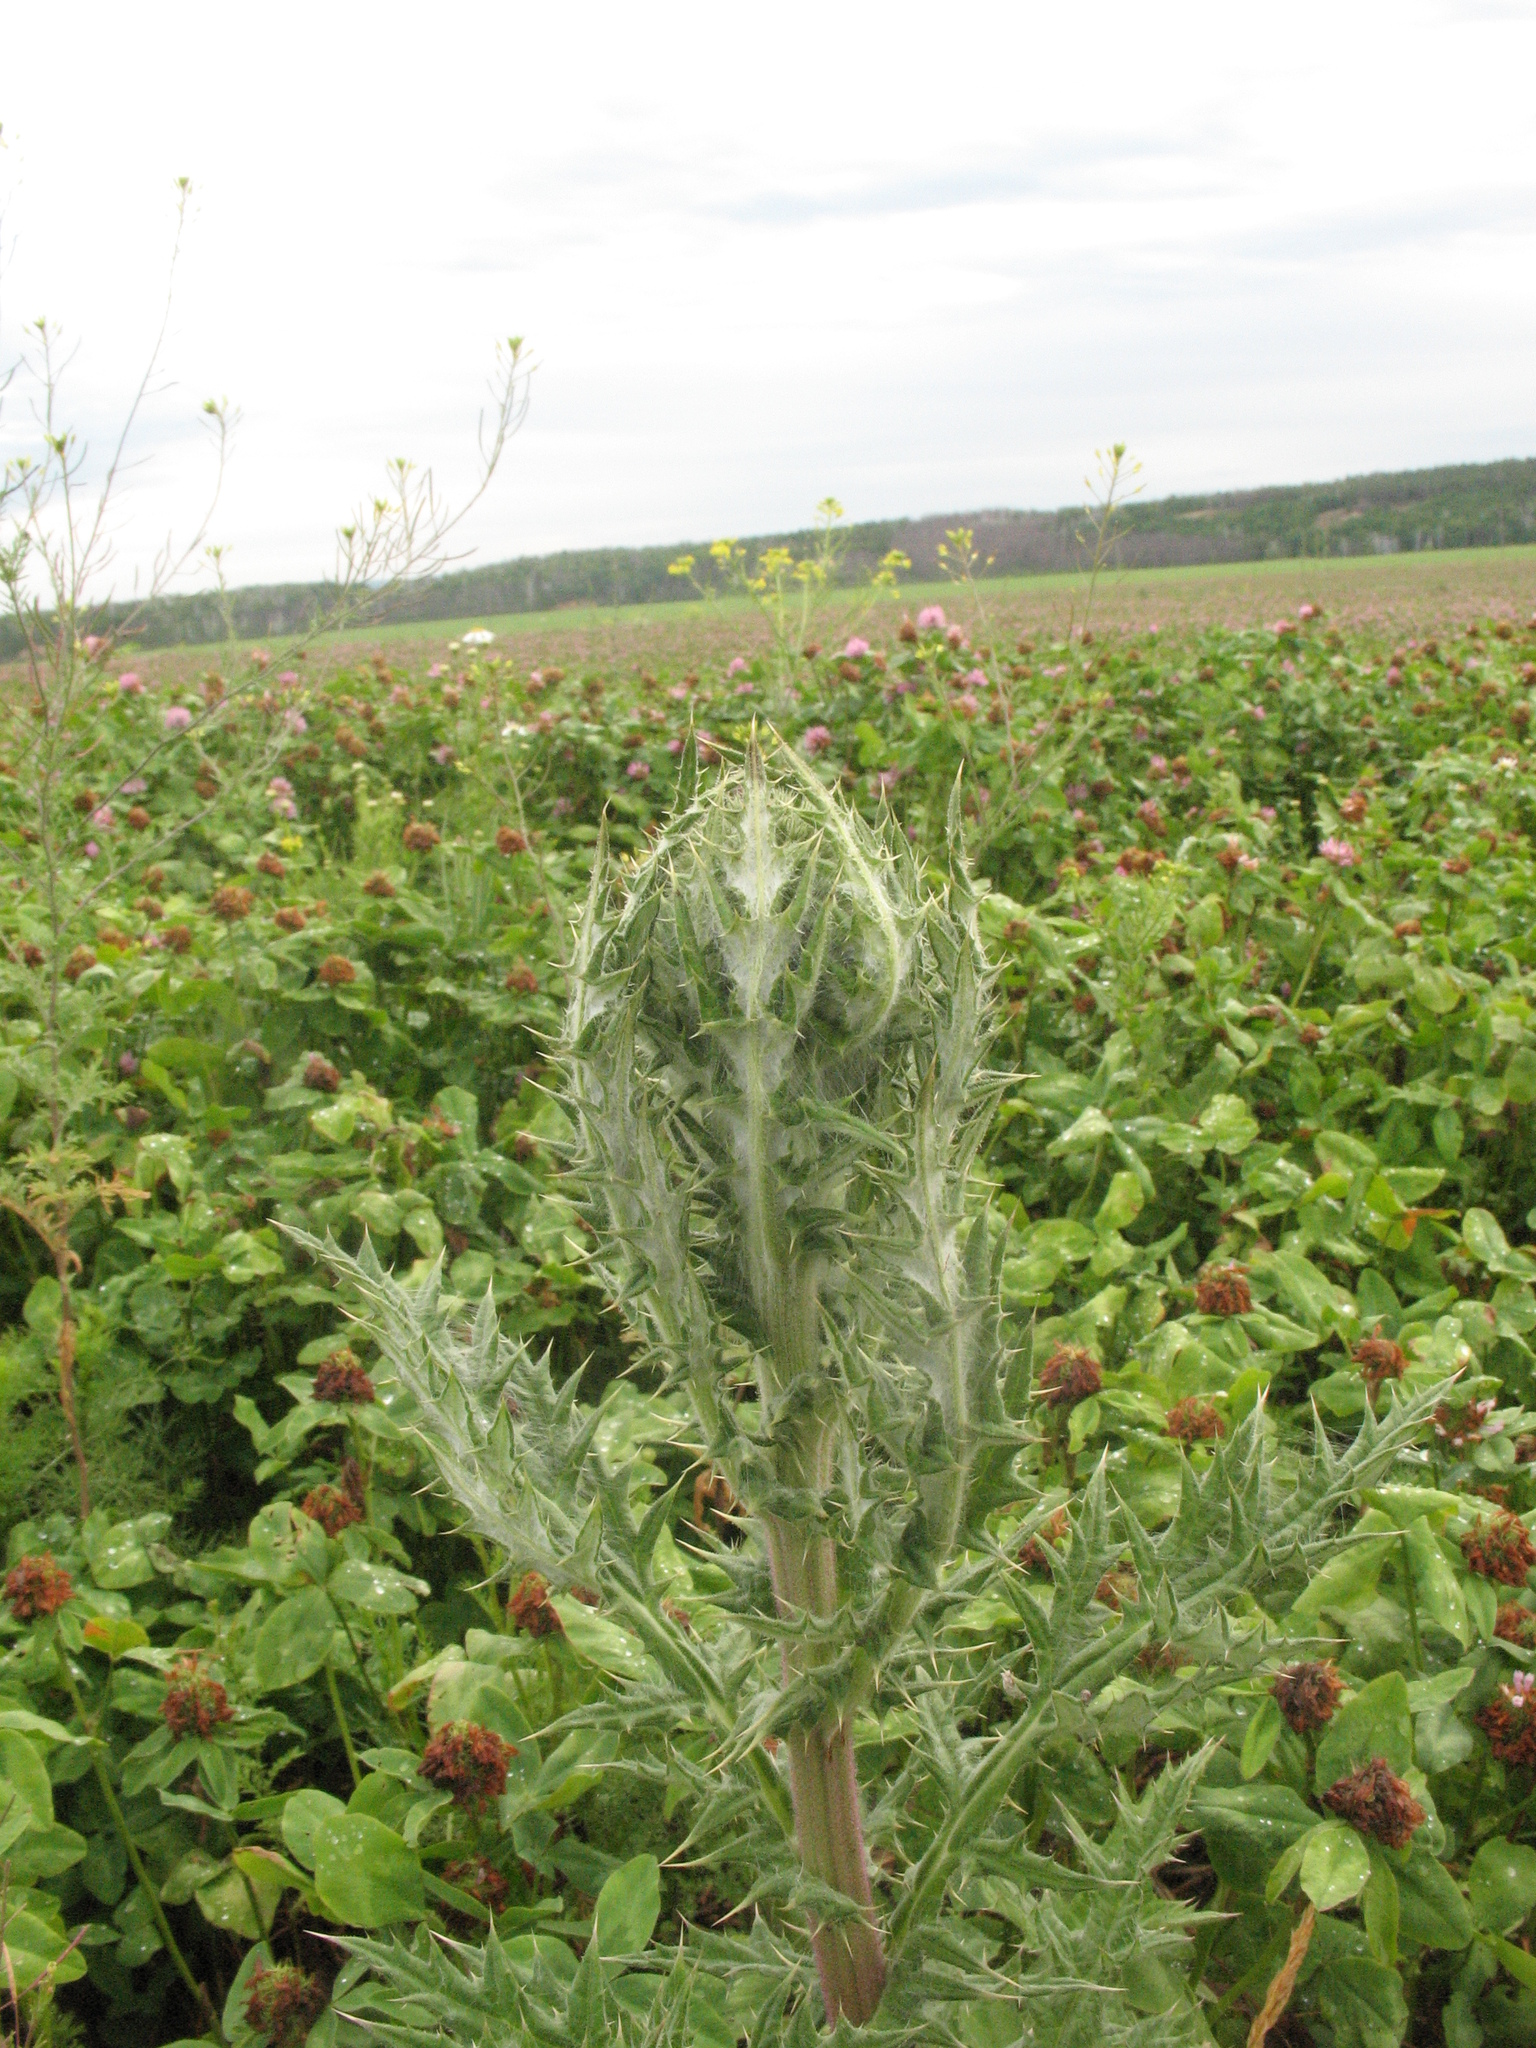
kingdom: Plantae
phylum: Tracheophyta
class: Magnoliopsida
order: Asterales
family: Asteraceae
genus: Echinops
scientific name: Echinops sphaerocephalus
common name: Glandular globe-thistle
